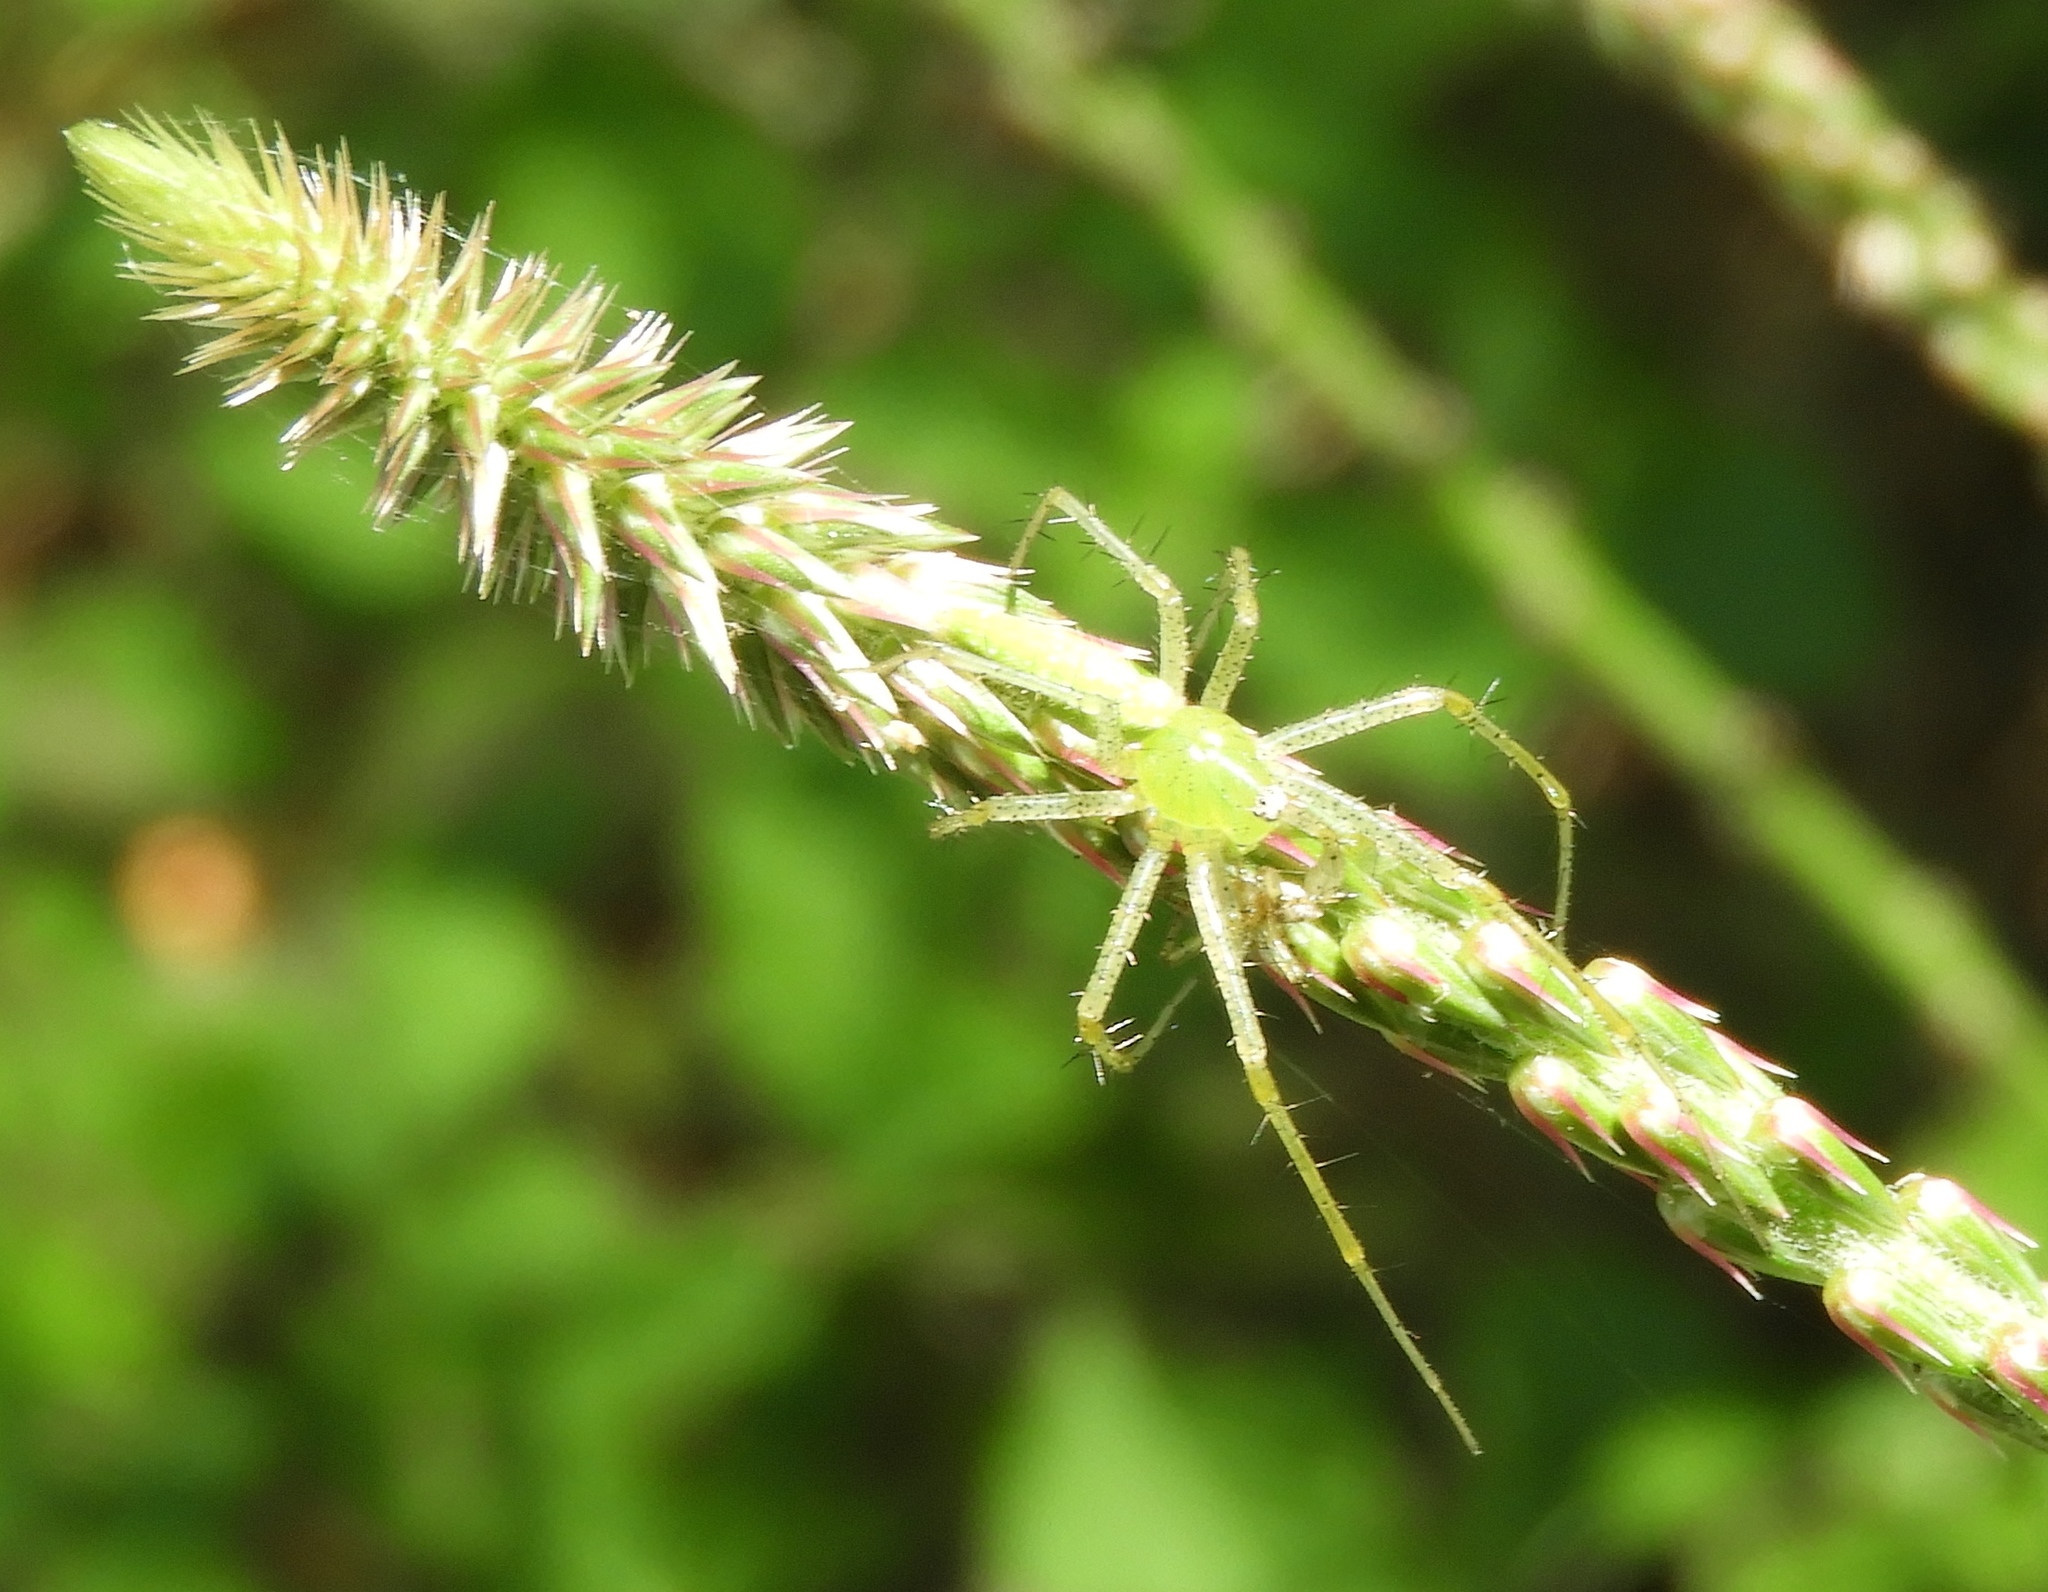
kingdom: Animalia
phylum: Arthropoda
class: Arachnida
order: Araneae
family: Oxyopidae
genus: Peucetia
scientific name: Peucetia
